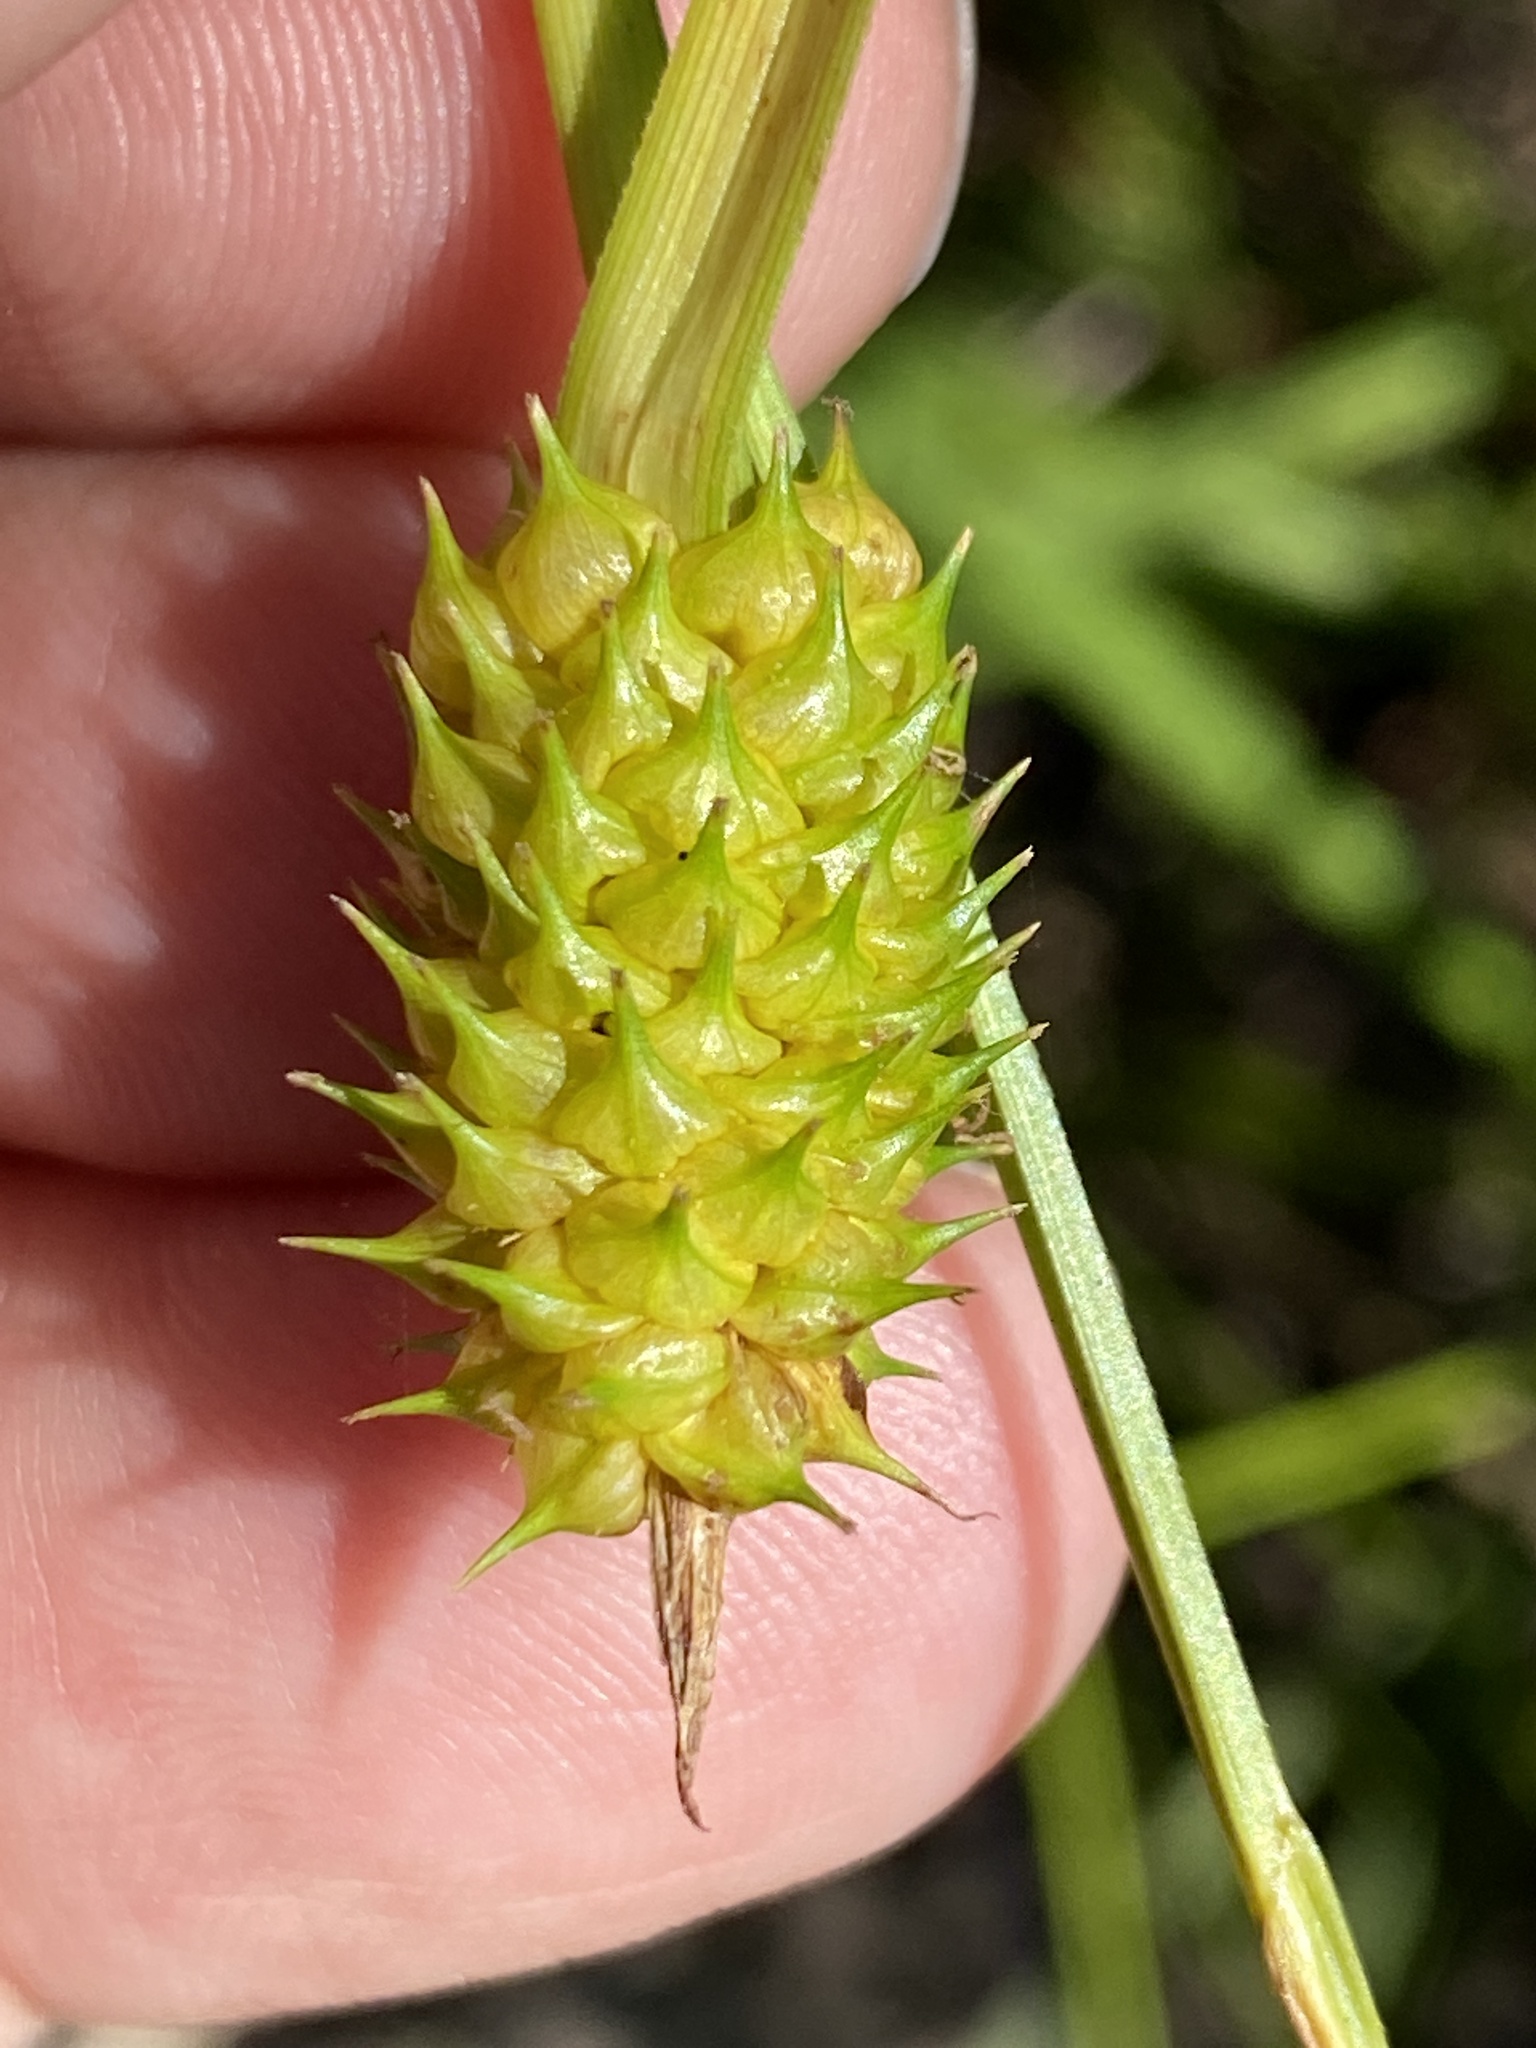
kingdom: Plantae
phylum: Tracheophyta
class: Liliopsida
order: Poales
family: Cyperaceae
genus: Carex
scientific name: Carex lutea
